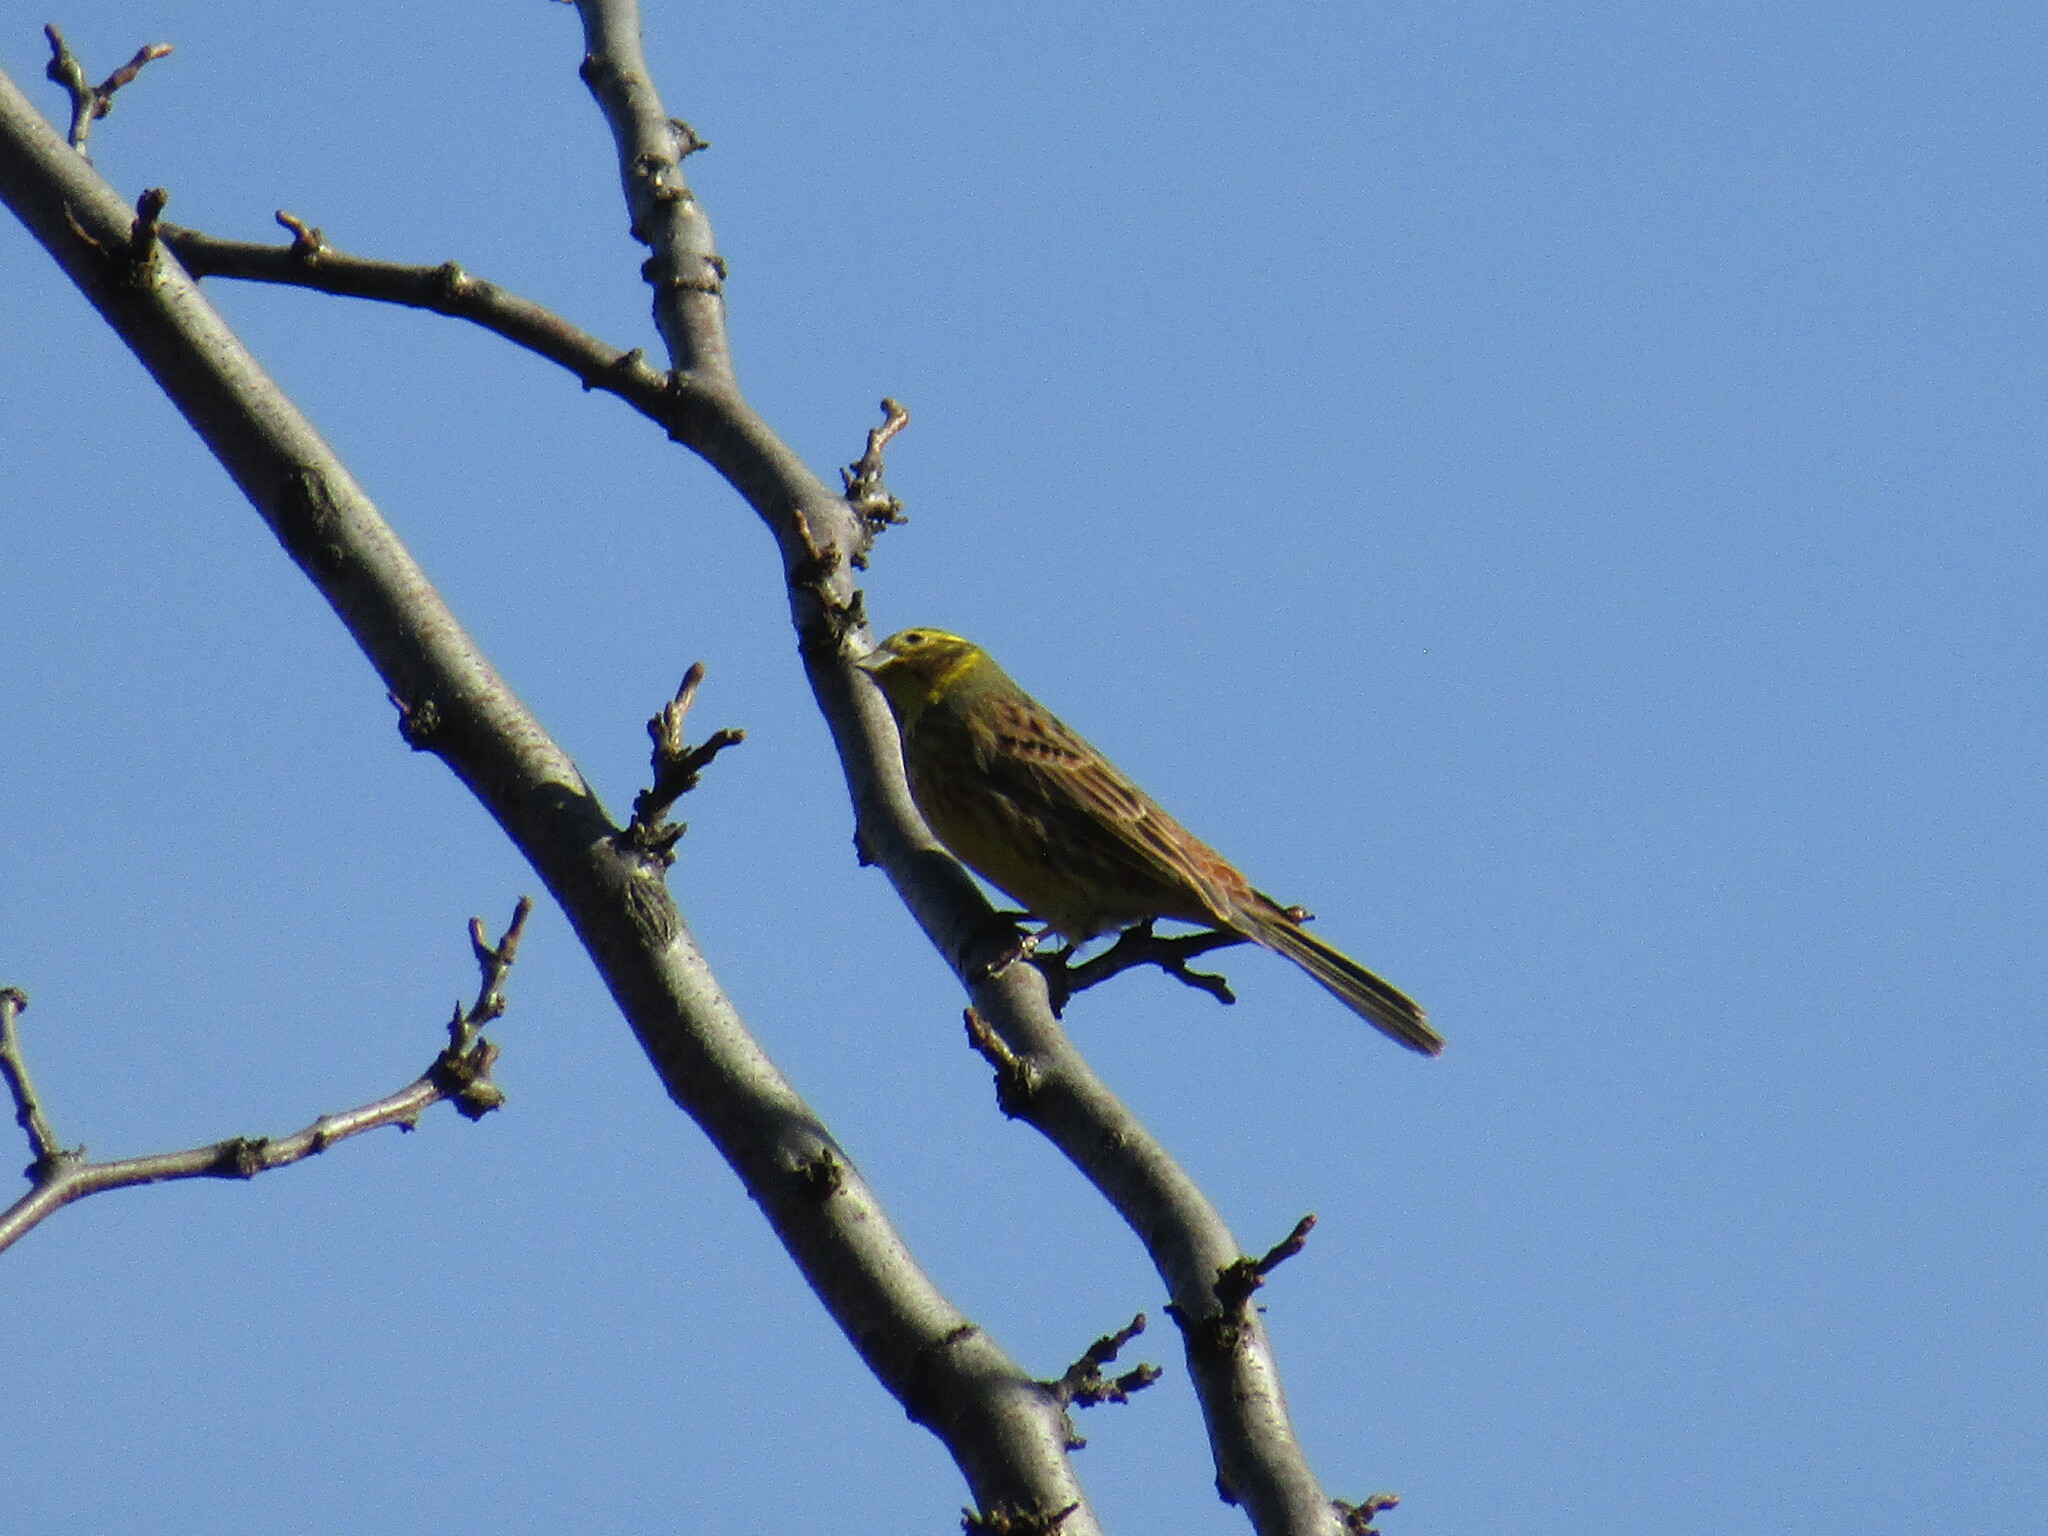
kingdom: Animalia
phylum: Chordata
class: Aves
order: Passeriformes
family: Emberizidae
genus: Emberiza
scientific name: Emberiza citrinella
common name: Yellowhammer
